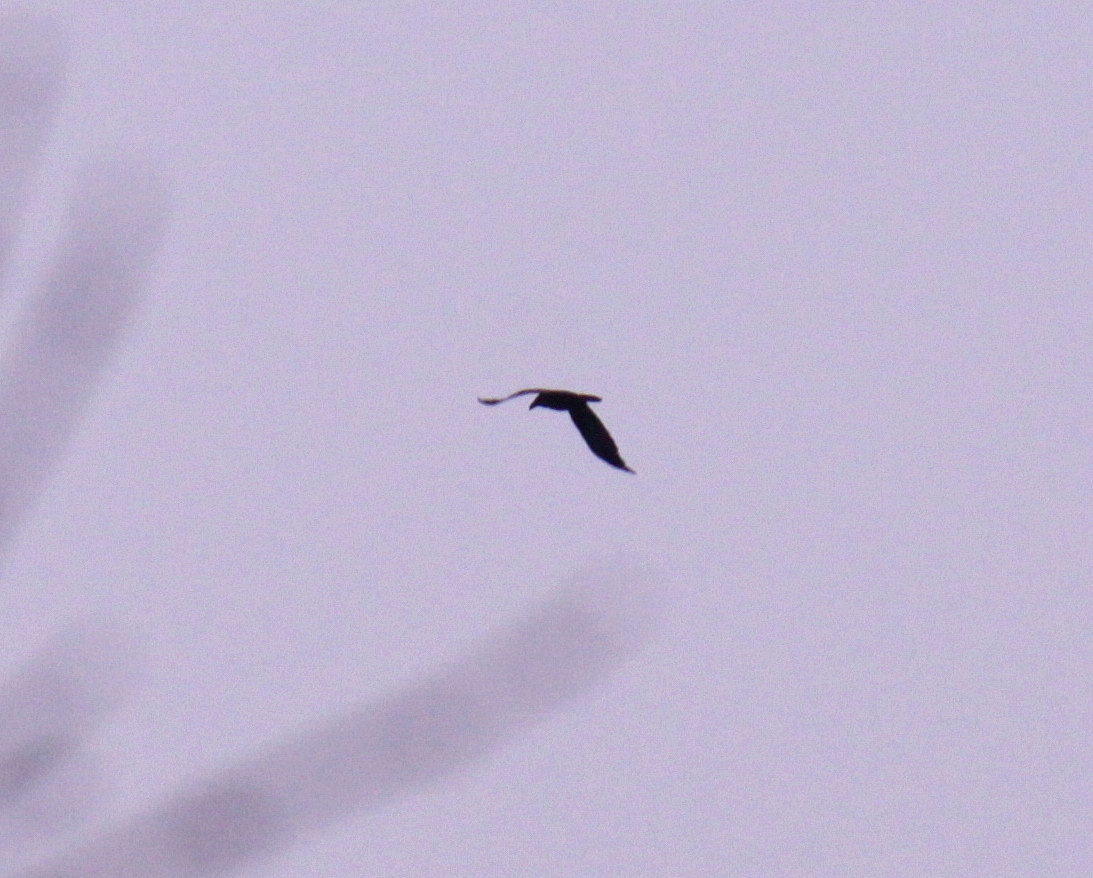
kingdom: Animalia
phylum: Chordata
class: Aves
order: Passeriformes
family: Corvidae
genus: Corvus
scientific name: Corvus corax
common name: Common raven
